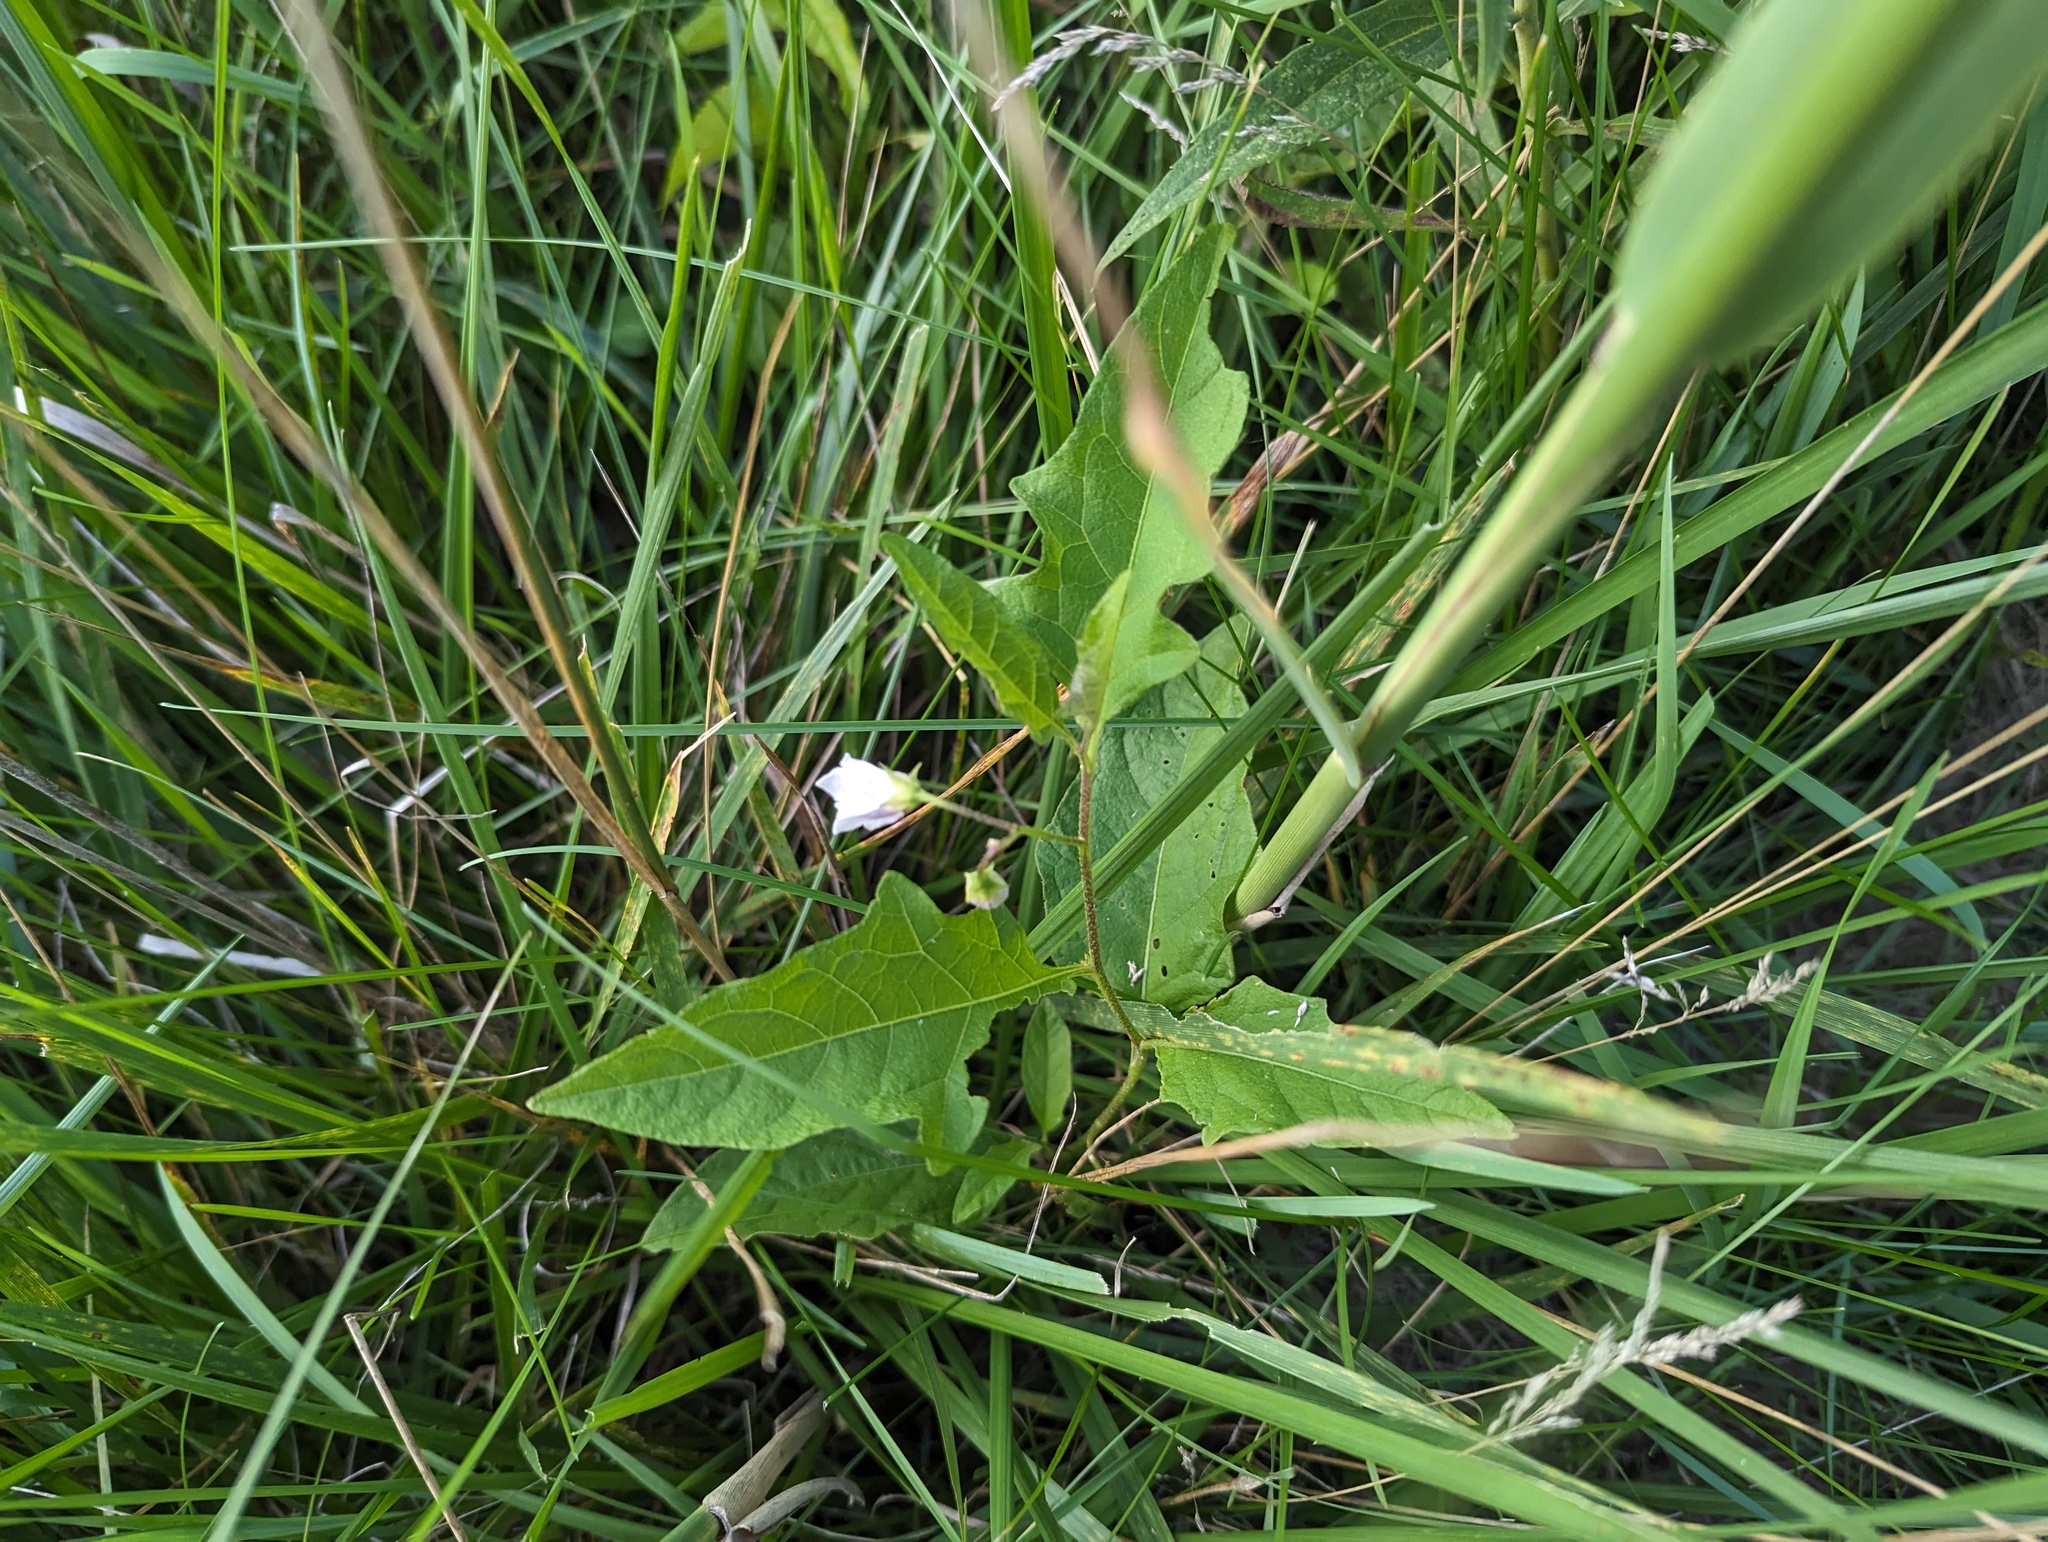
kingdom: Plantae
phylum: Tracheophyta
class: Magnoliopsida
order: Solanales
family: Solanaceae
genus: Solanum
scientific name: Solanum carolinense
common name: Horse-nettle
